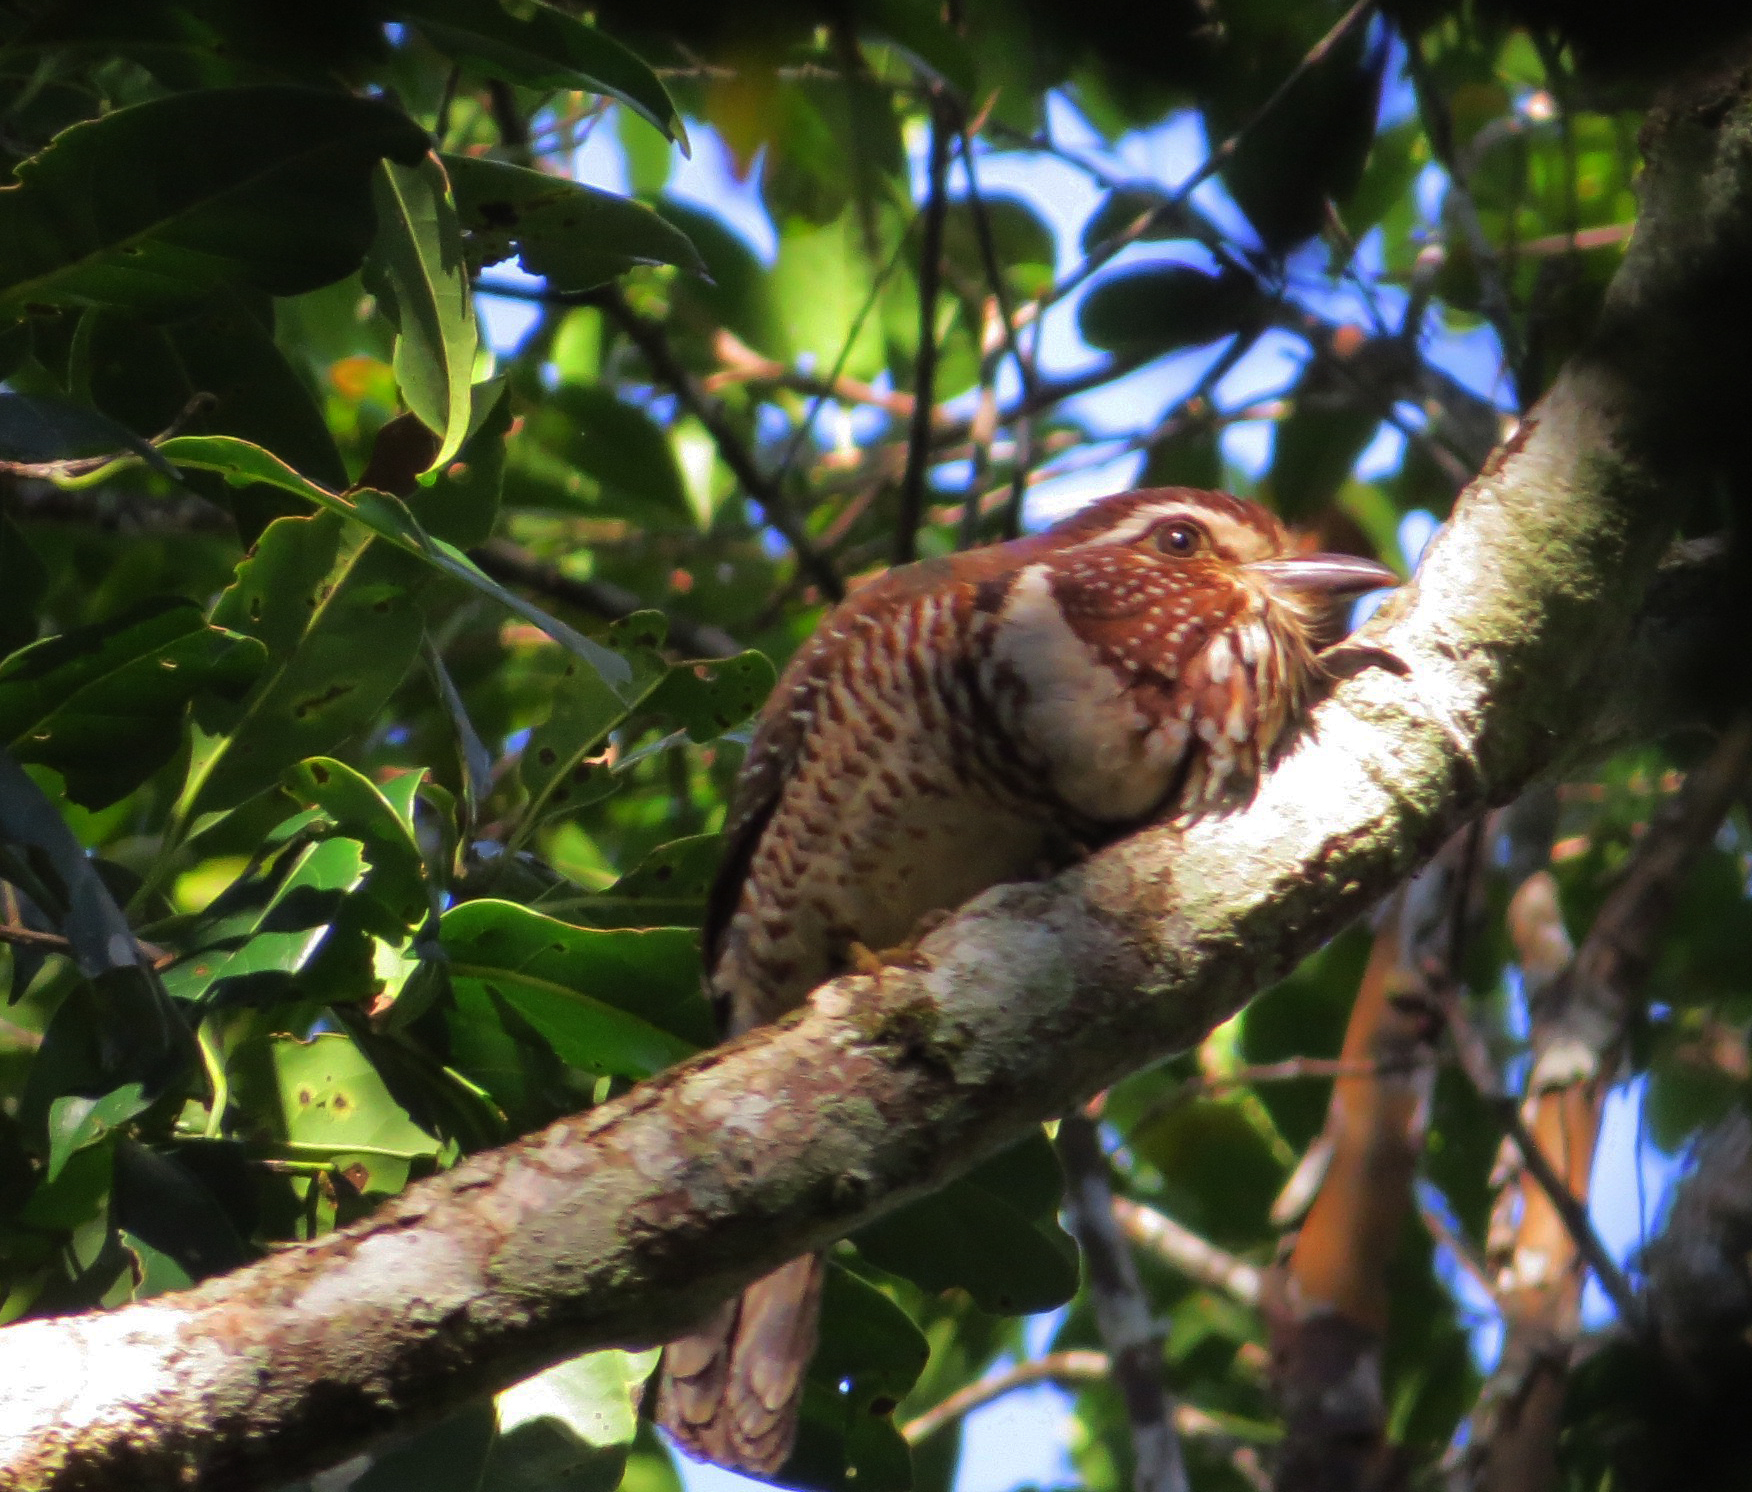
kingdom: Animalia
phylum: Chordata
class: Aves
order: Coraciiformes
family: Brachypteraciidae
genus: Brachypteracias
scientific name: Brachypteracias leptosomus
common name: Short-legged ground-roller
